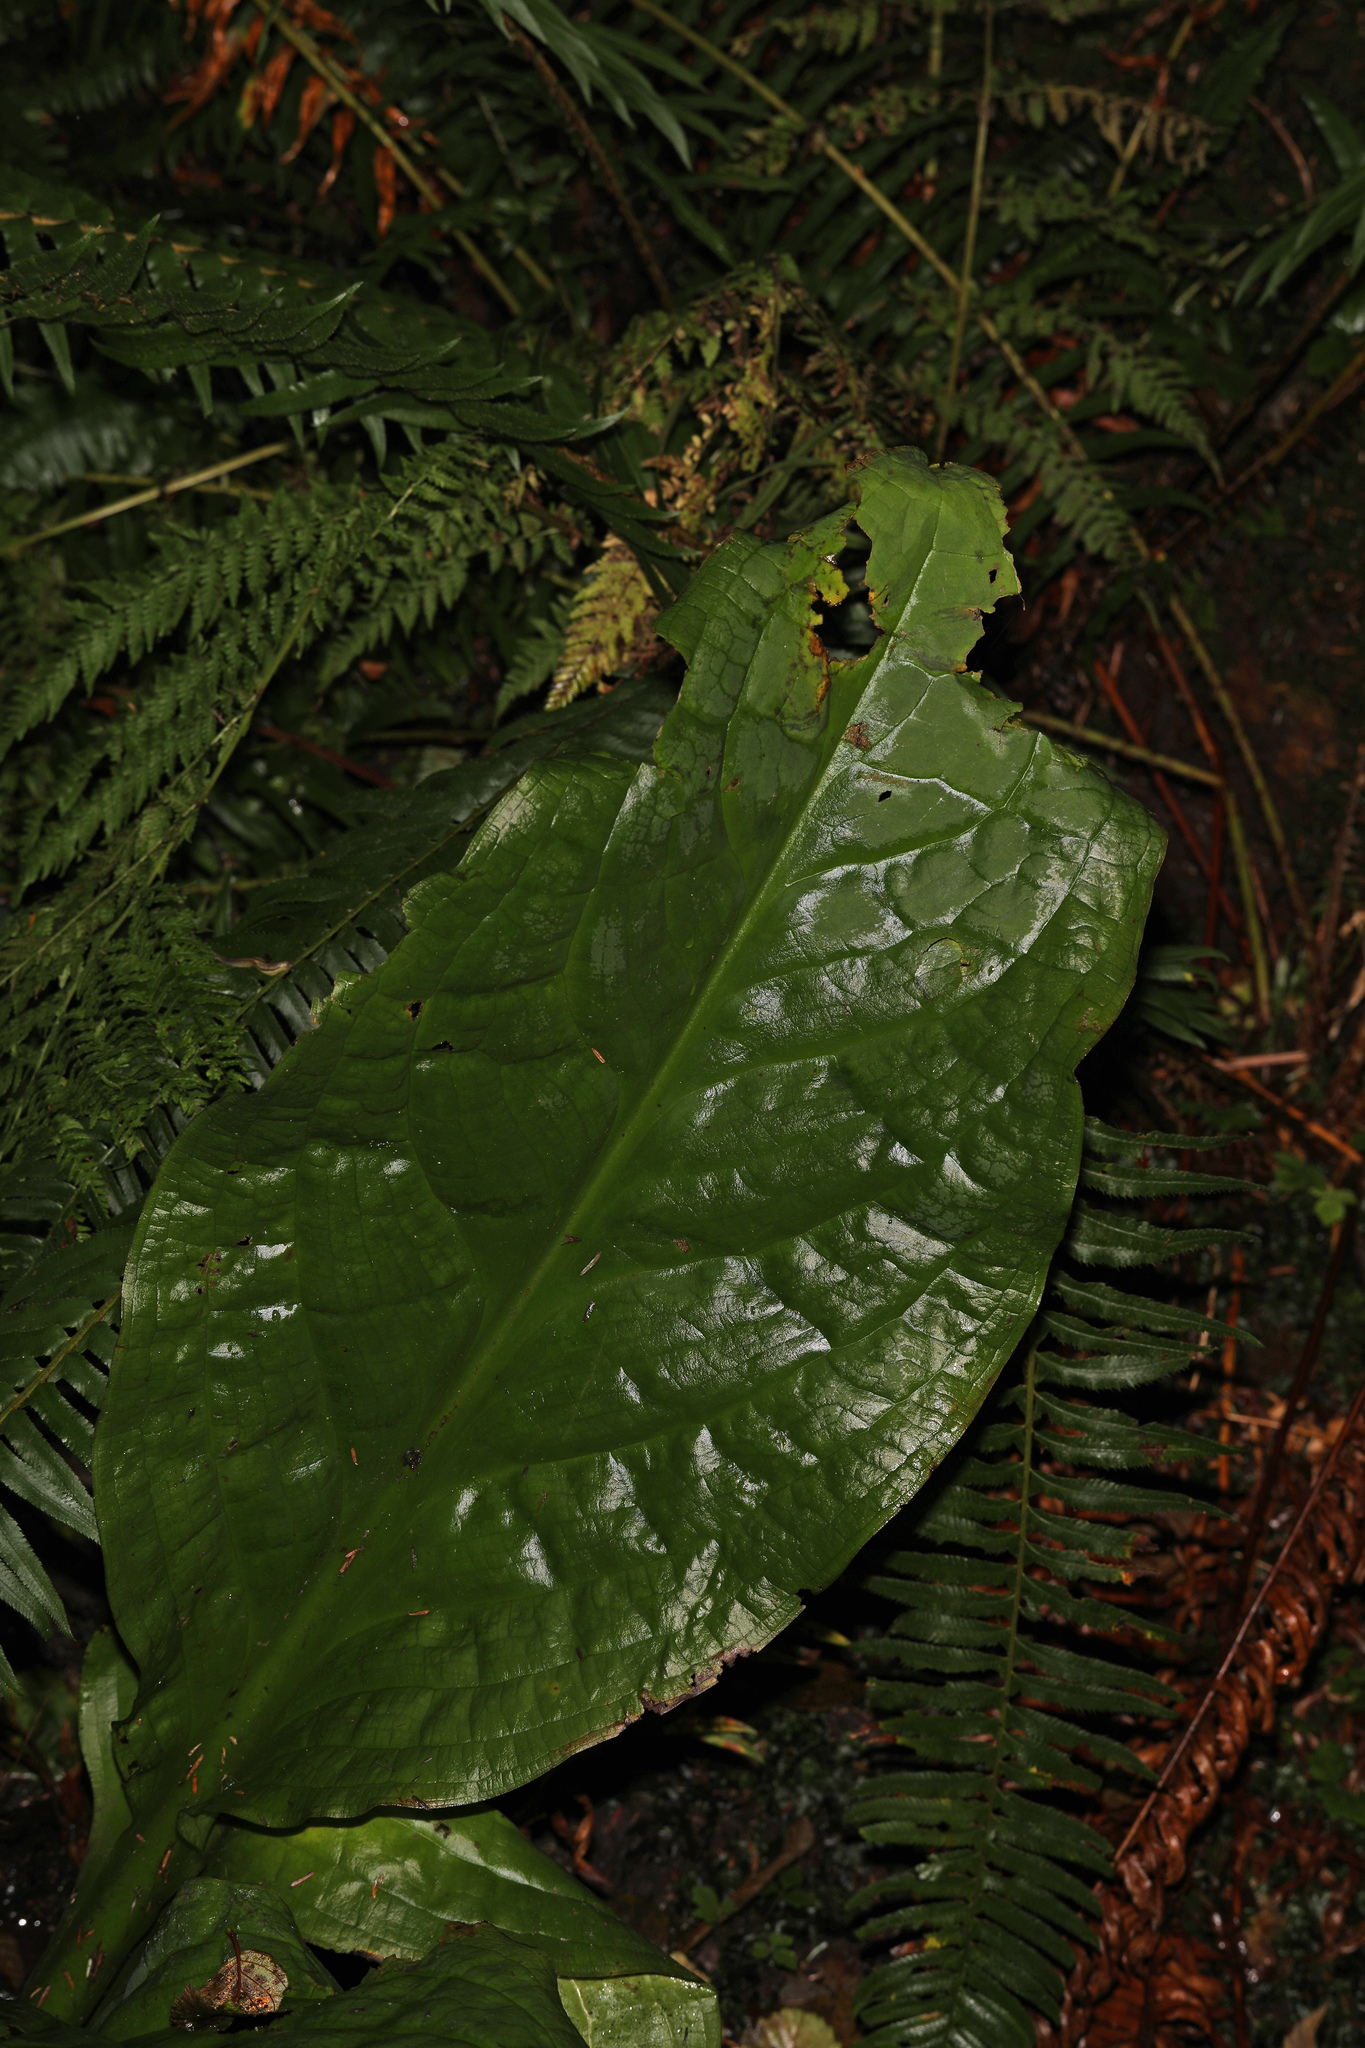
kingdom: Plantae
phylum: Tracheophyta
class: Liliopsida
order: Alismatales
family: Araceae
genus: Lysichiton
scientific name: Lysichiton americanus
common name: American skunk cabbage
